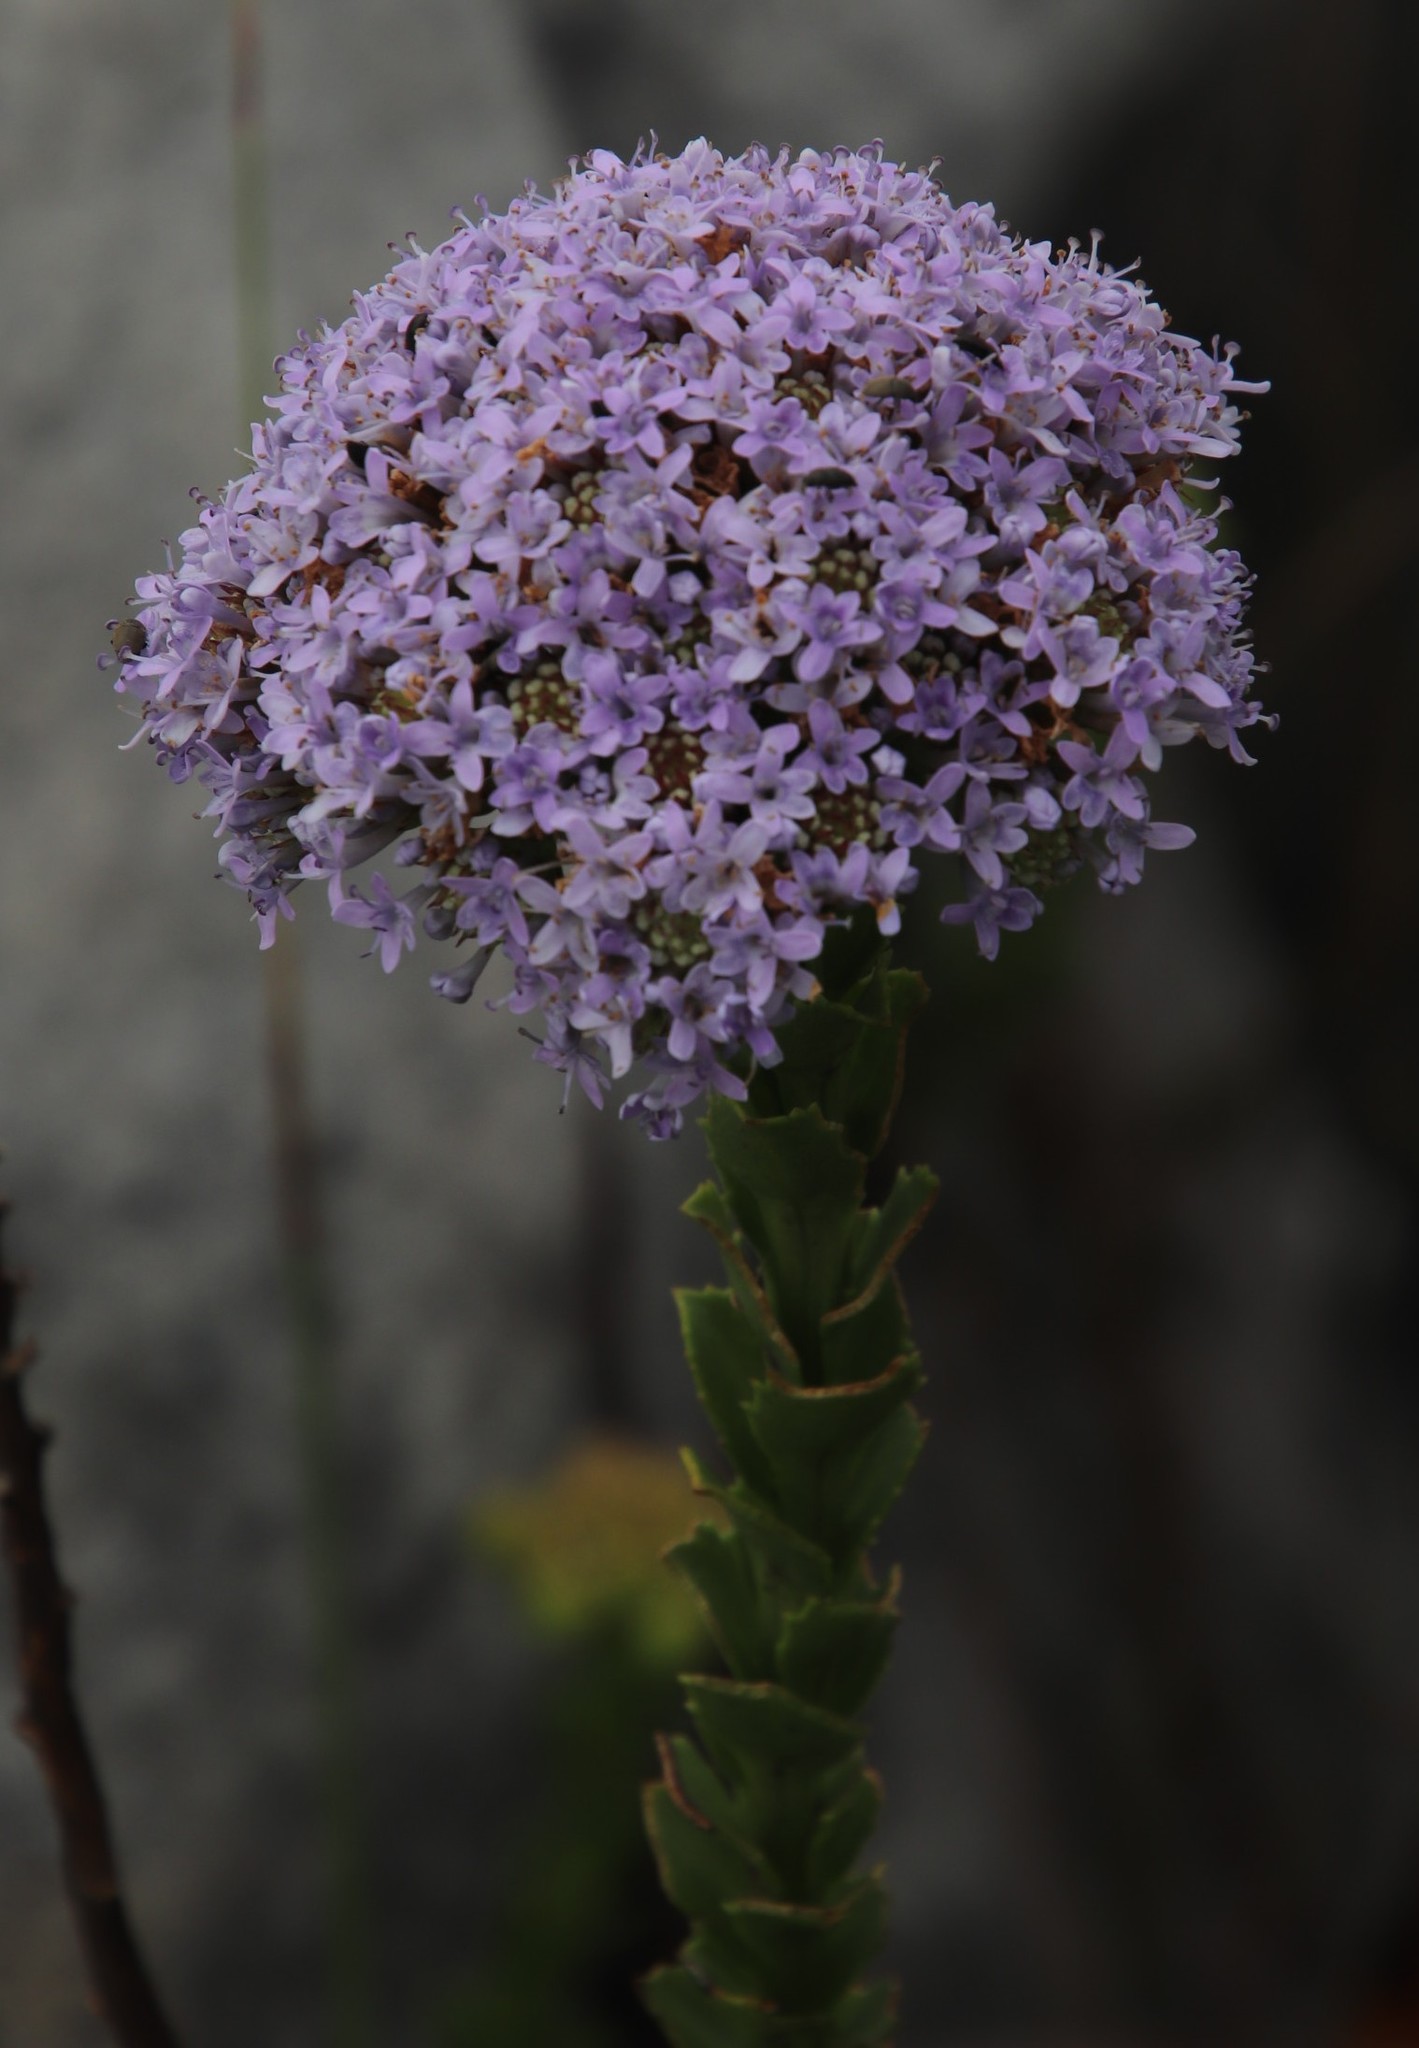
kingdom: Plantae
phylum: Tracheophyta
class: Magnoliopsida
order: Lamiales
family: Scrophulariaceae
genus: Pseudoselago
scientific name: Pseudoselago serrata
